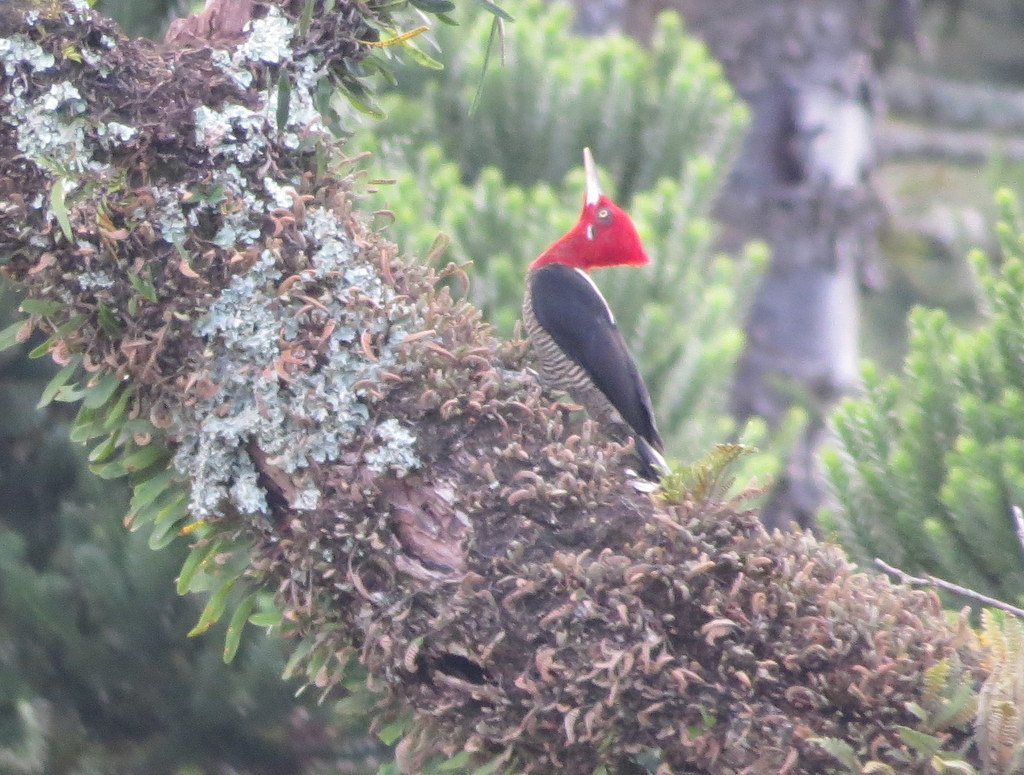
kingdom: Animalia
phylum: Chordata
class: Aves
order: Piciformes
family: Picidae
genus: Campephilus
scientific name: Campephilus robustus
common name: Robust woodpecker
